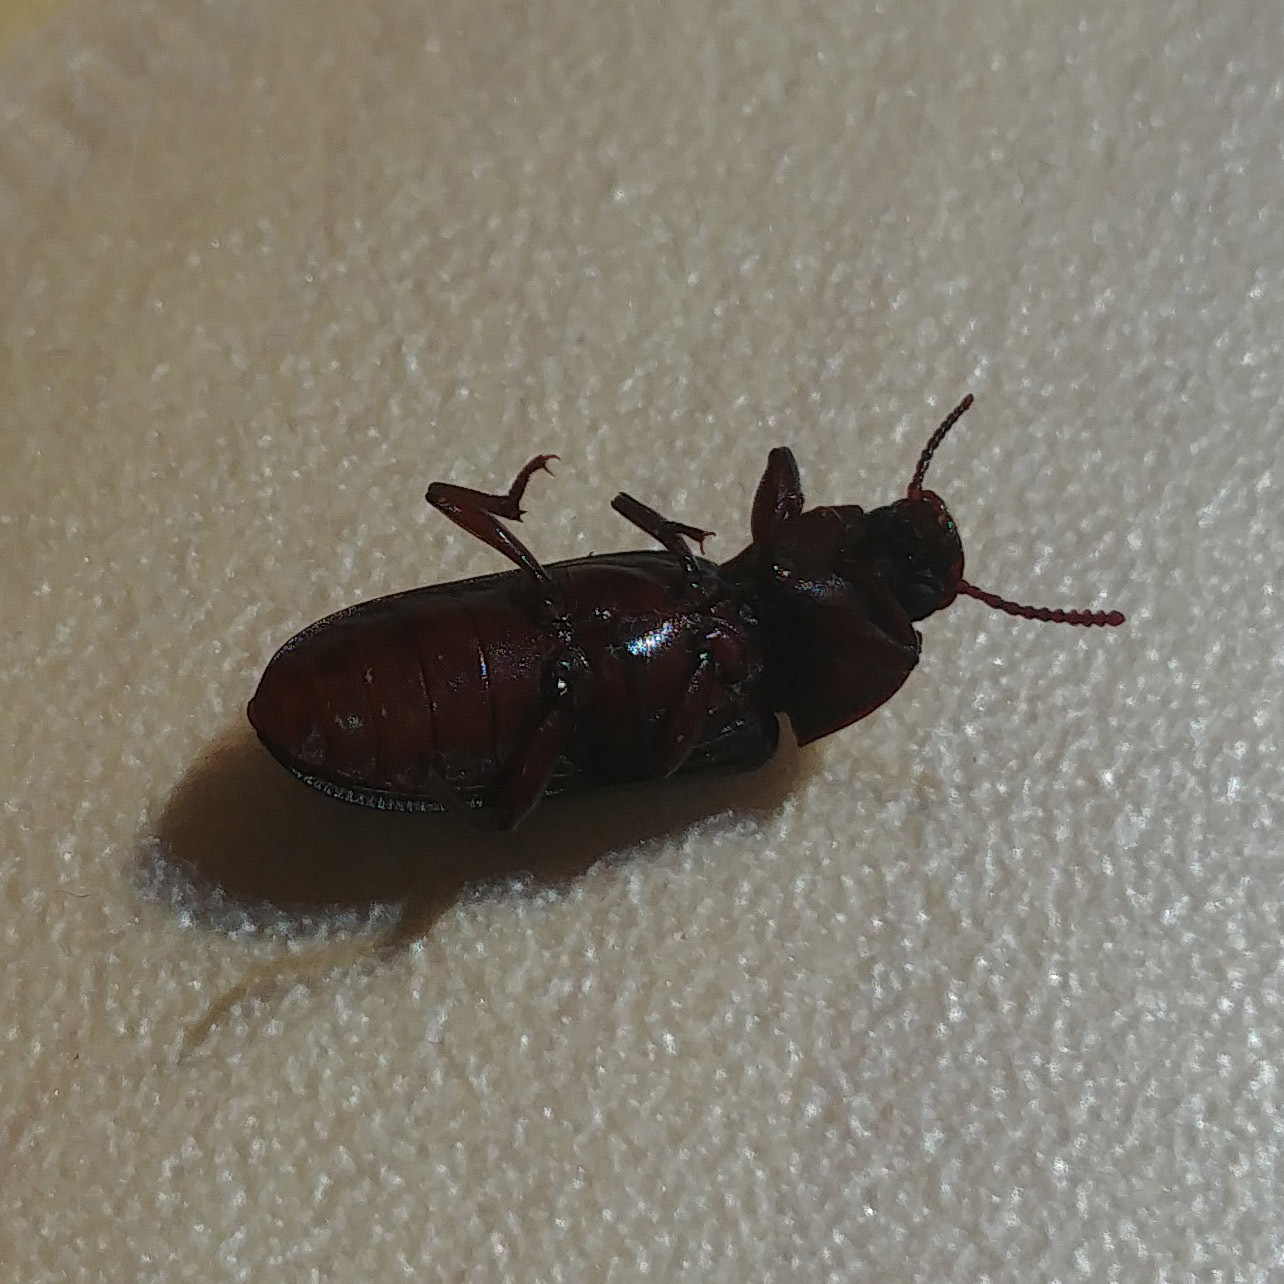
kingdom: Animalia
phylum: Arthropoda
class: Insecta
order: Coleoptera
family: Tenebrionidae
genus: Tenebrio
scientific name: Tenebrio molitor
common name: Hardback beetle
